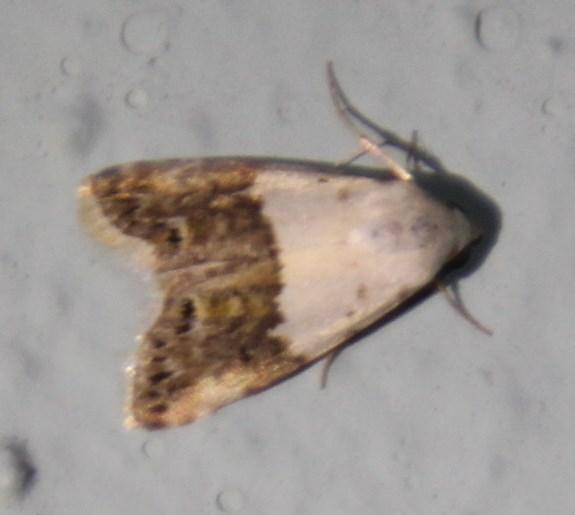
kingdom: Animalia
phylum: Arthropoda
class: Insecta
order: Lepidoptera
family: Noctuidae
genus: Eublemma
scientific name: Eublemma seminivea
